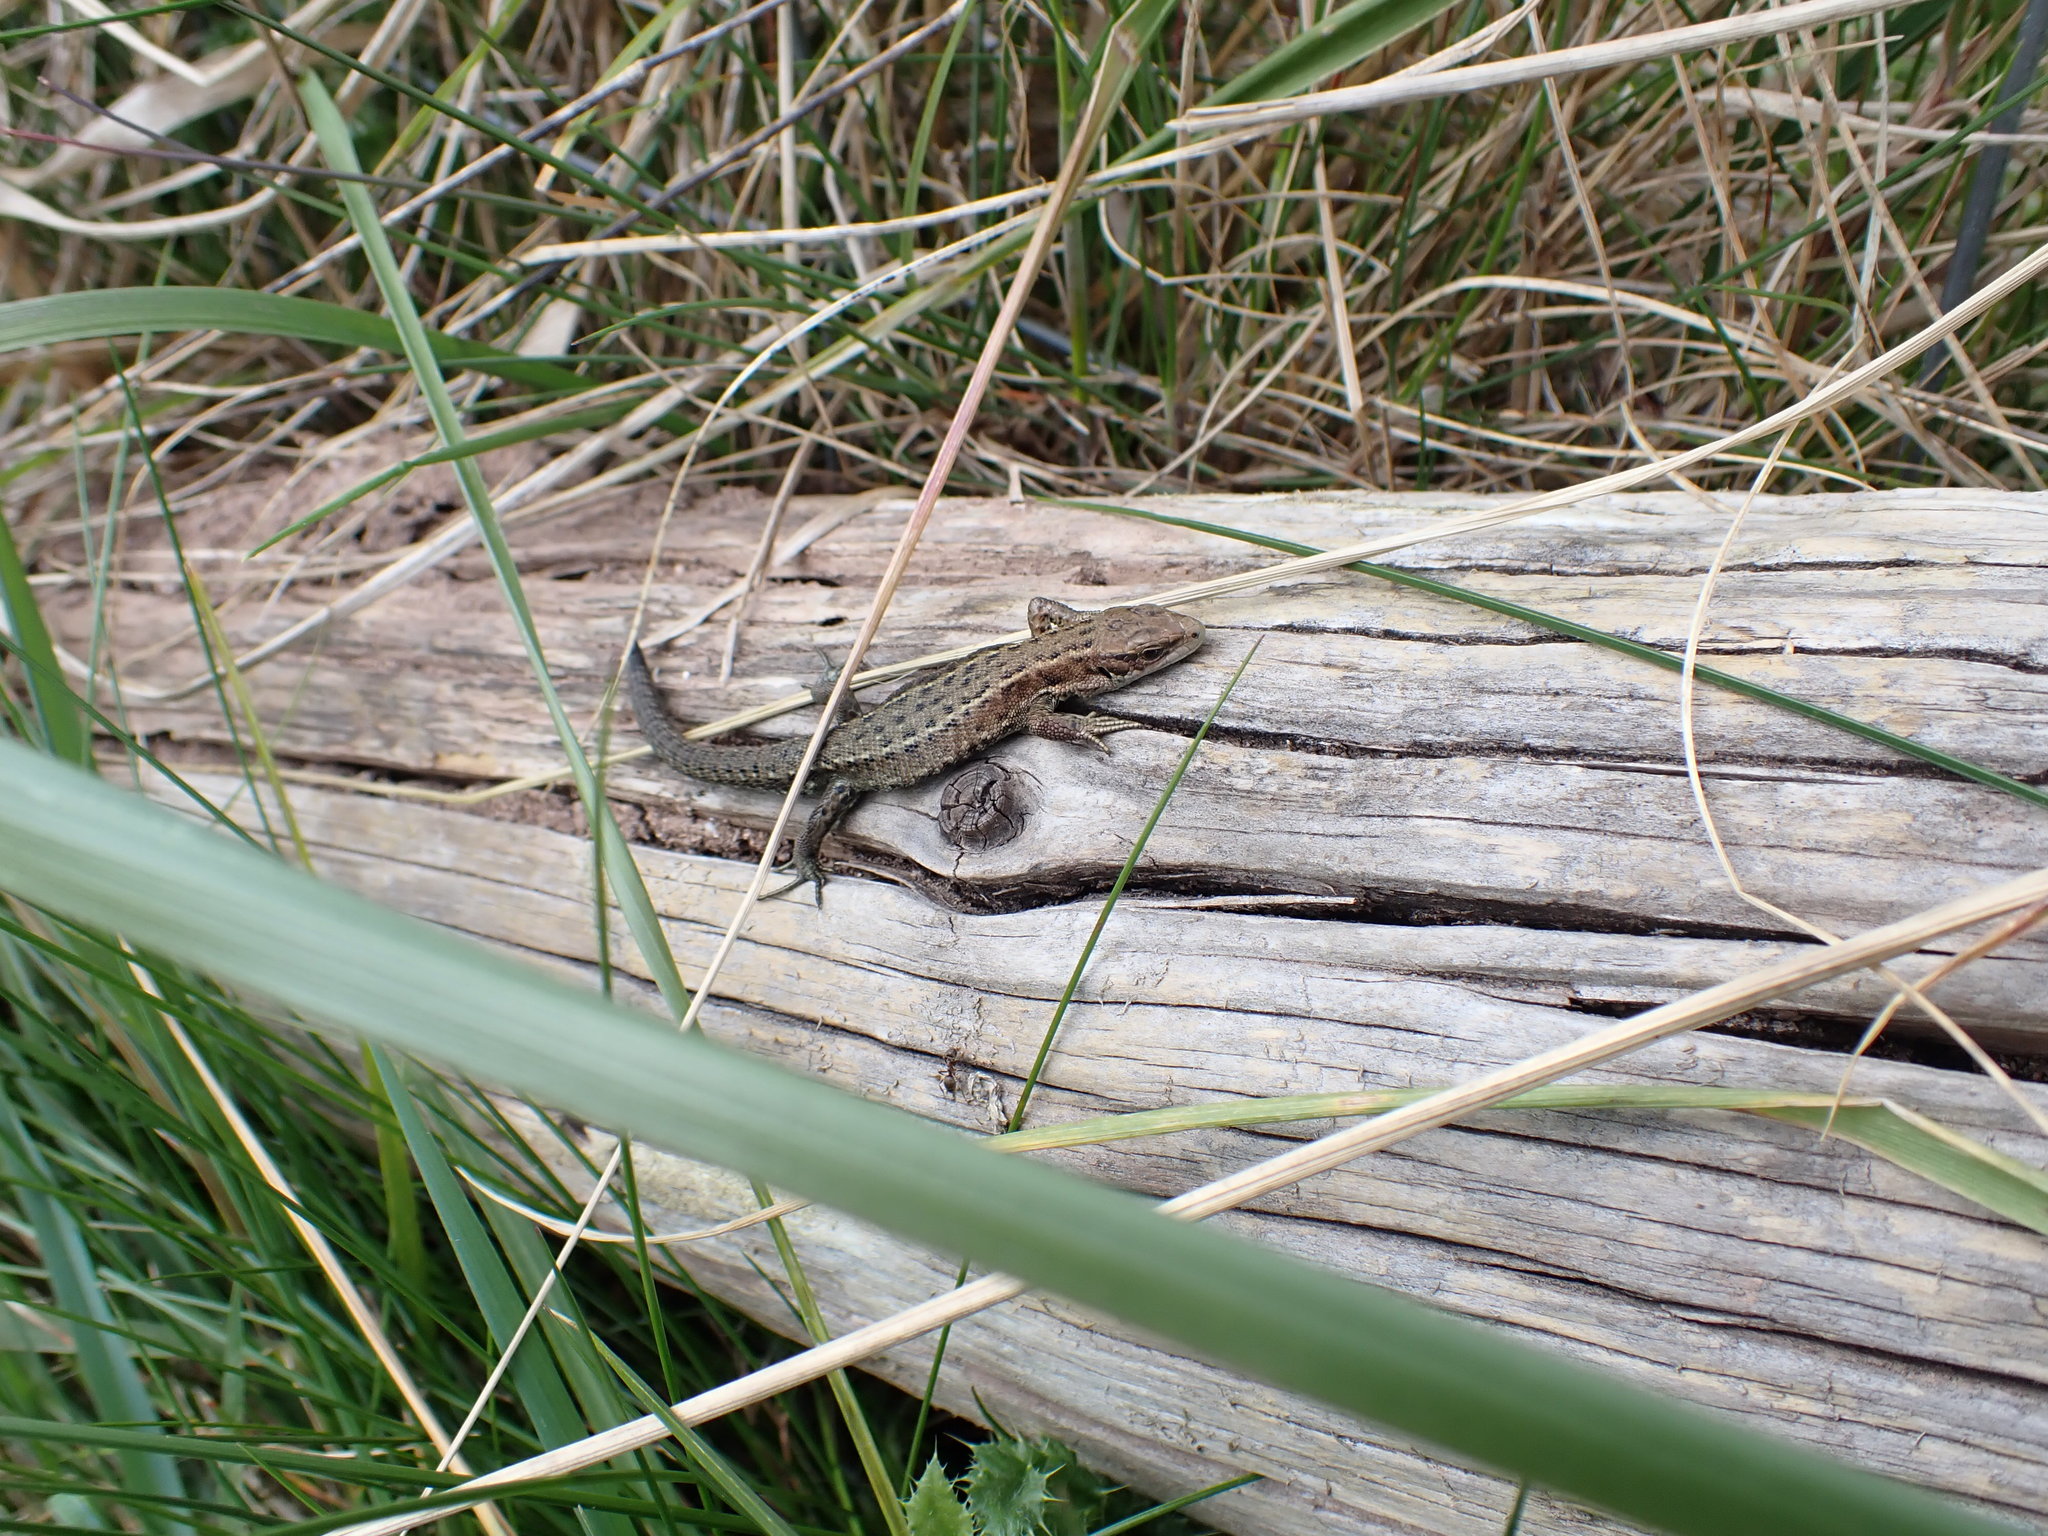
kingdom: Animalia
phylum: Chordata
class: Squamata
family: Lacertidae
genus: Zootoca
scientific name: Zootoca vivipara
